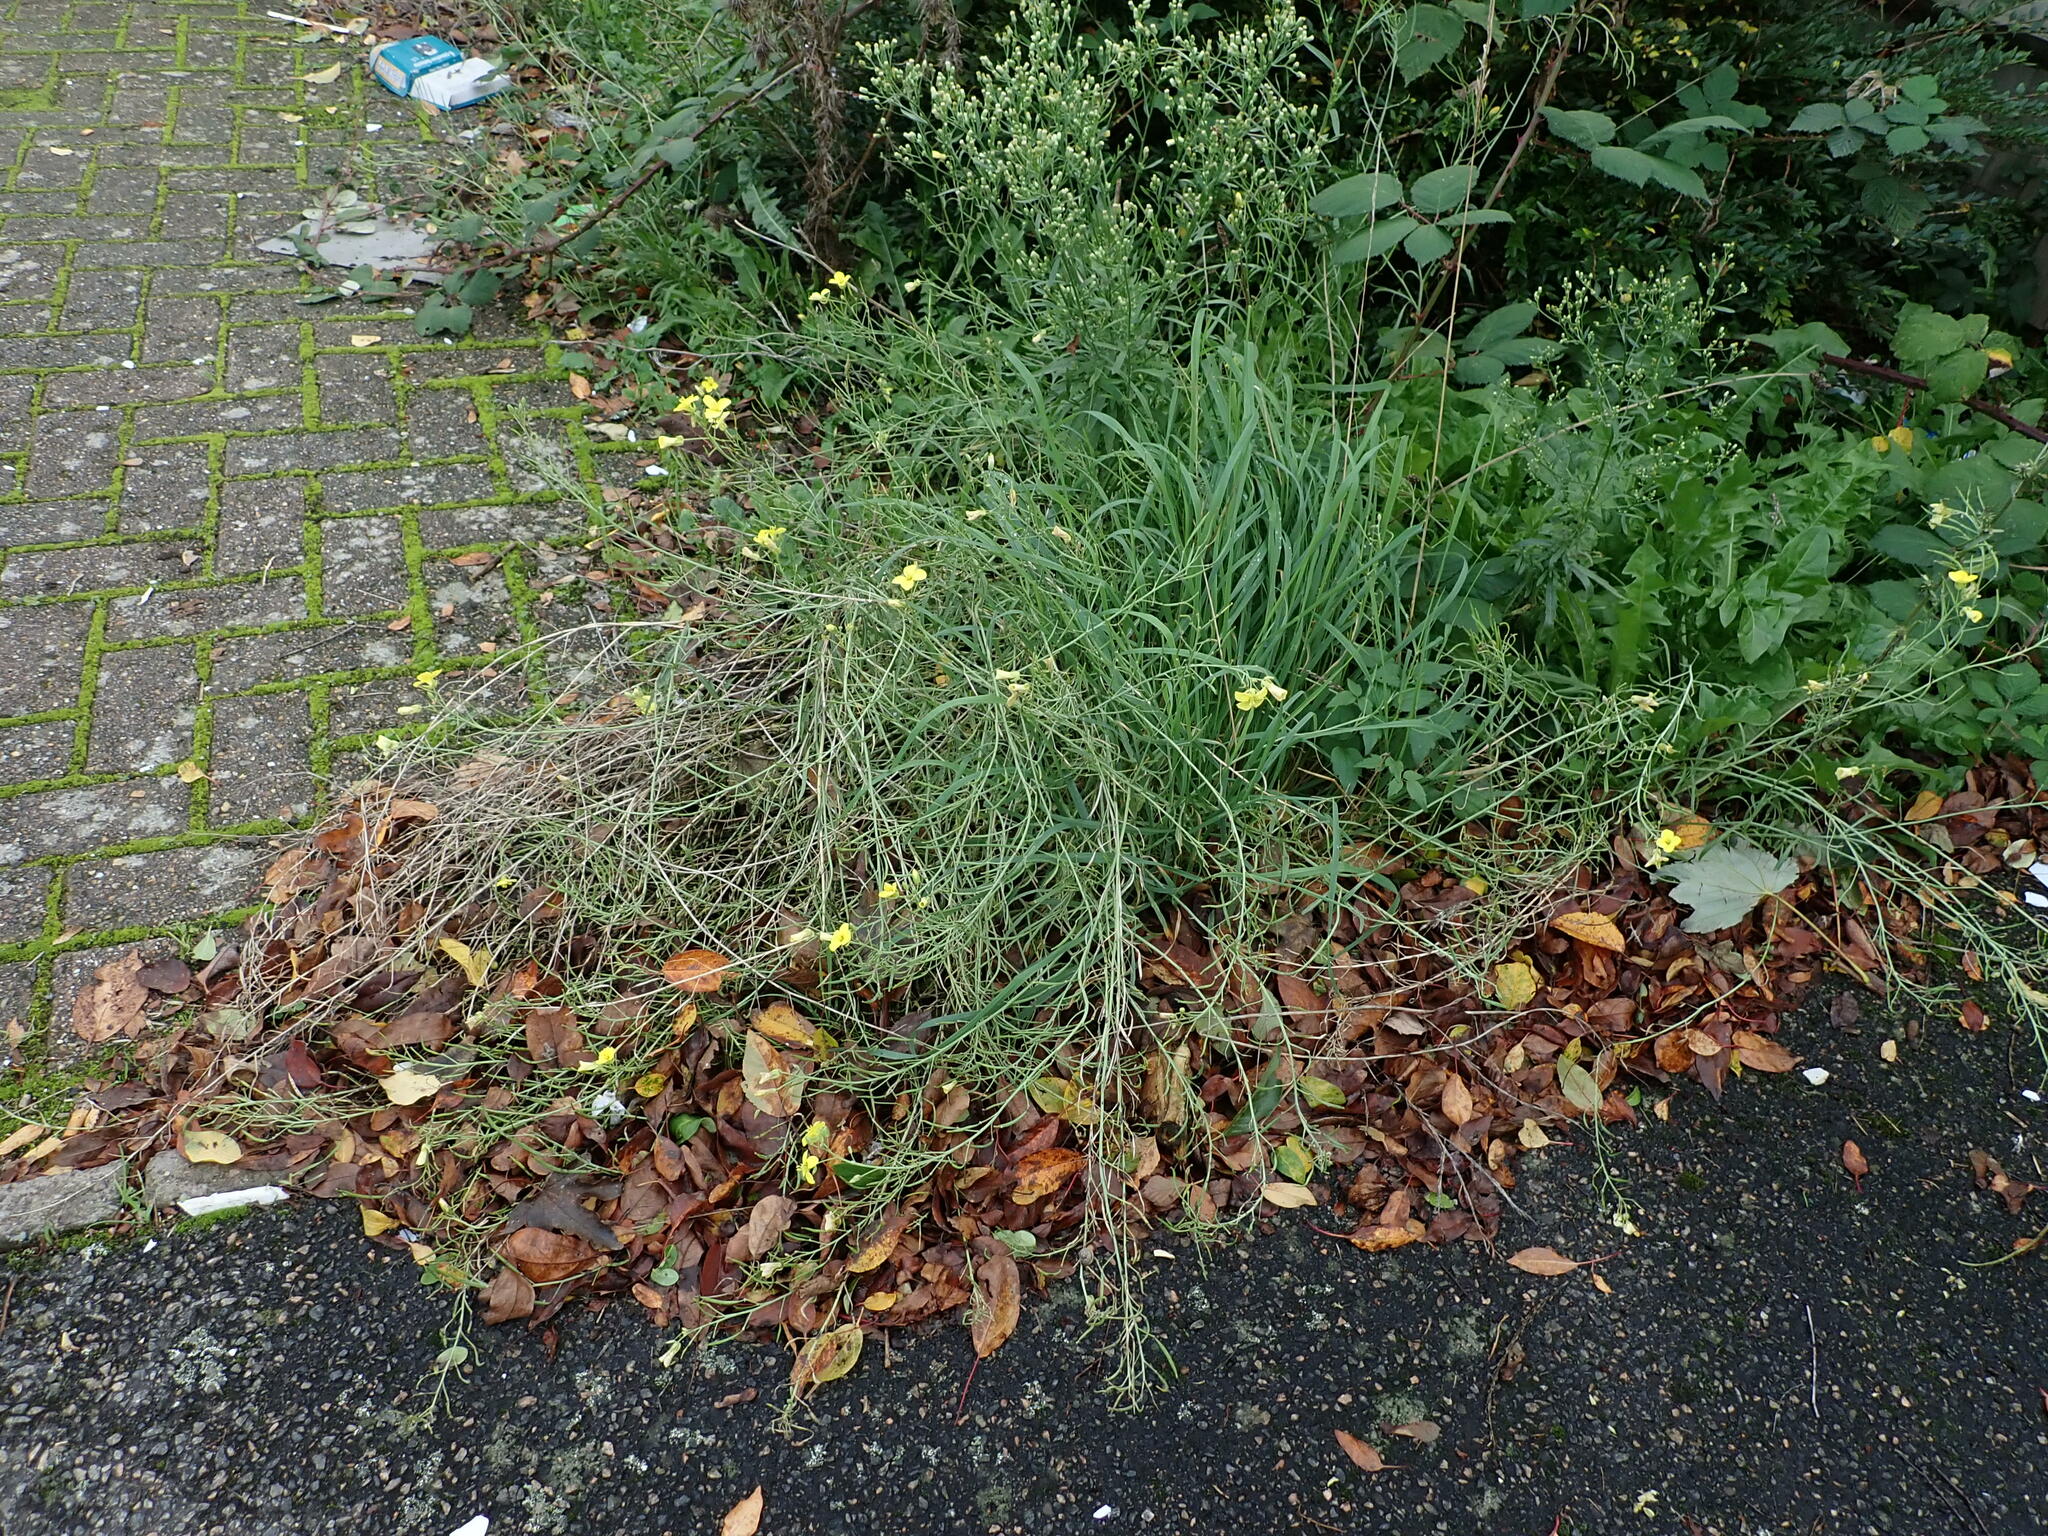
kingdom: Plantae
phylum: Tracheophyta
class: Magnoliopsida
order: Brassicales
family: Brassicaceae
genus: Diplotaxis
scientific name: Diplotaxis tenuifolia
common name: Perennial wall-rocket
